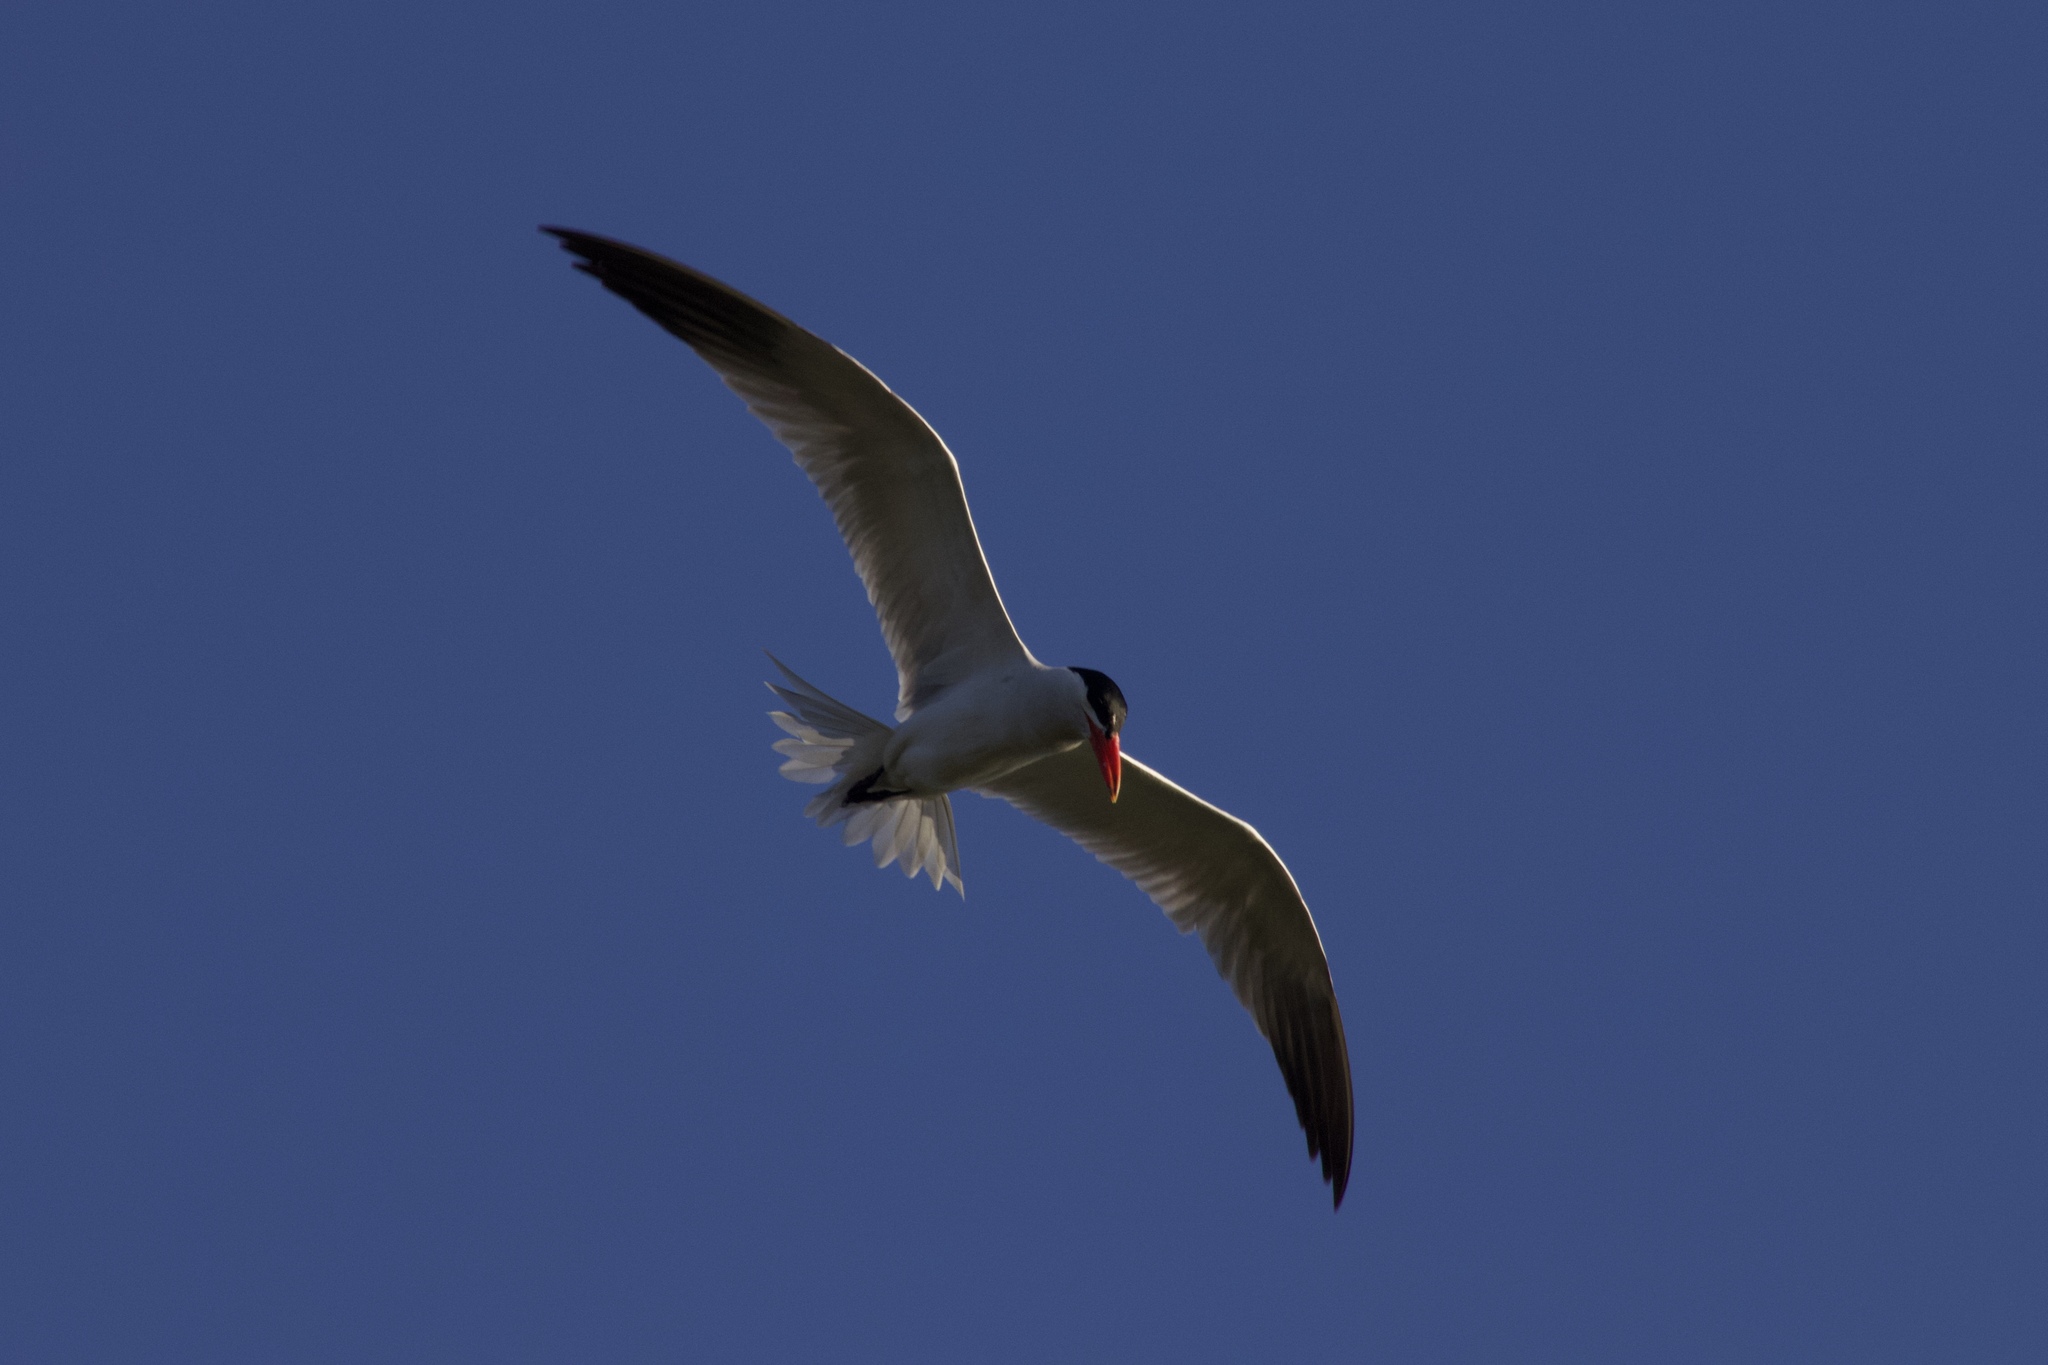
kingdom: Animalia
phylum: Chordata
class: Aves
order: Charadriiformes
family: Laridae
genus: Hydroprogne
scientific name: Hydroprogne caspia
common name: Caspian tern
